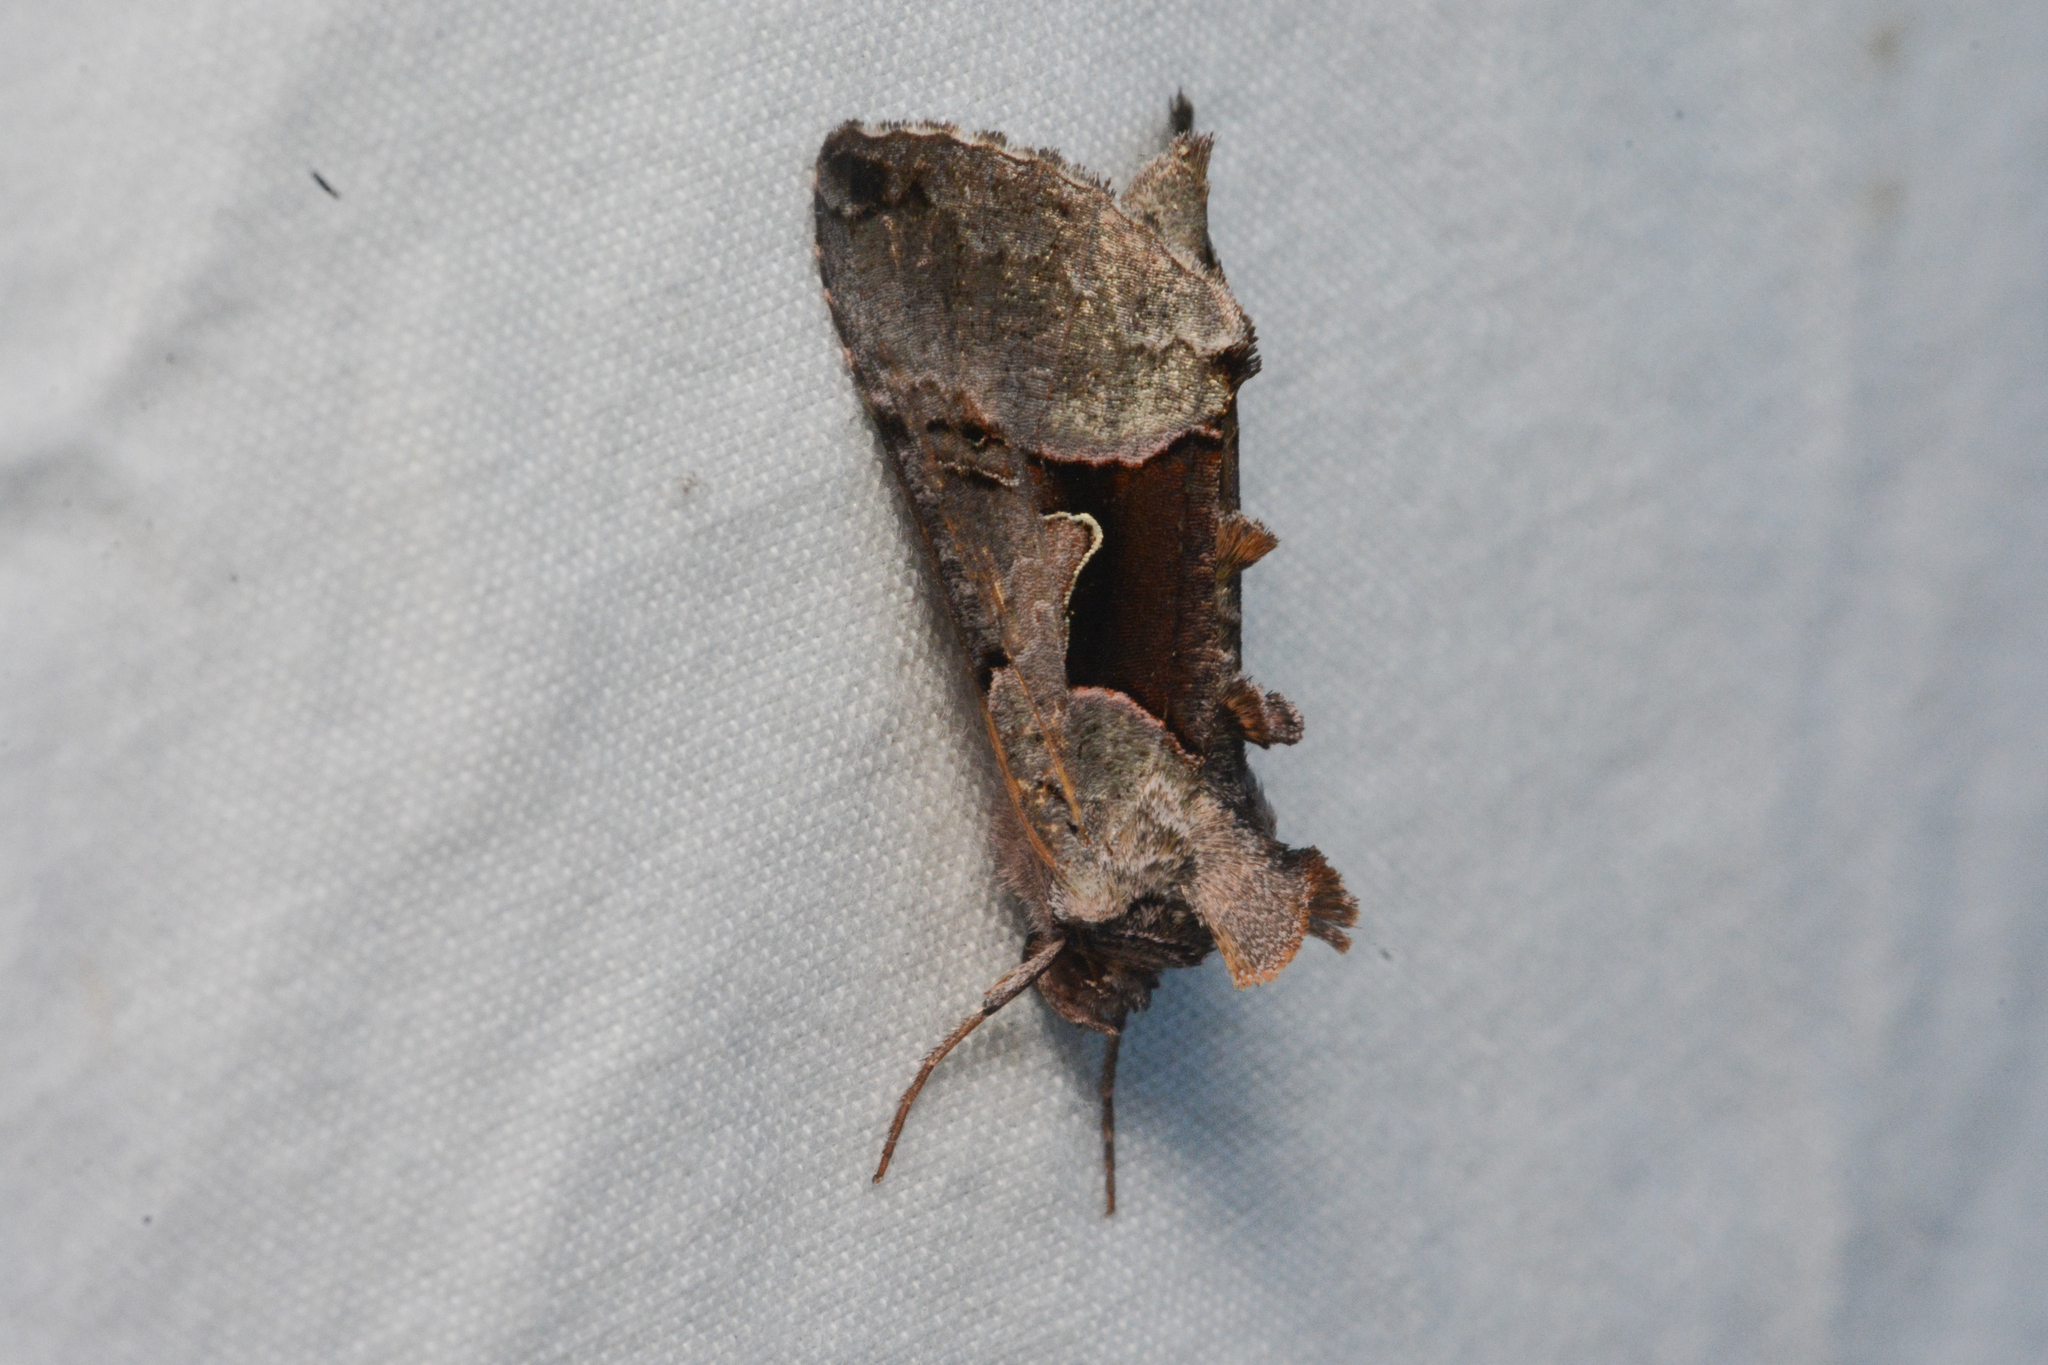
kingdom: Animalia
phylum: Arthropoda
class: Insecta
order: Lepidoptera
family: Noctuidae
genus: Autographa
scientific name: Autographa ampla
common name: Large looper moth
